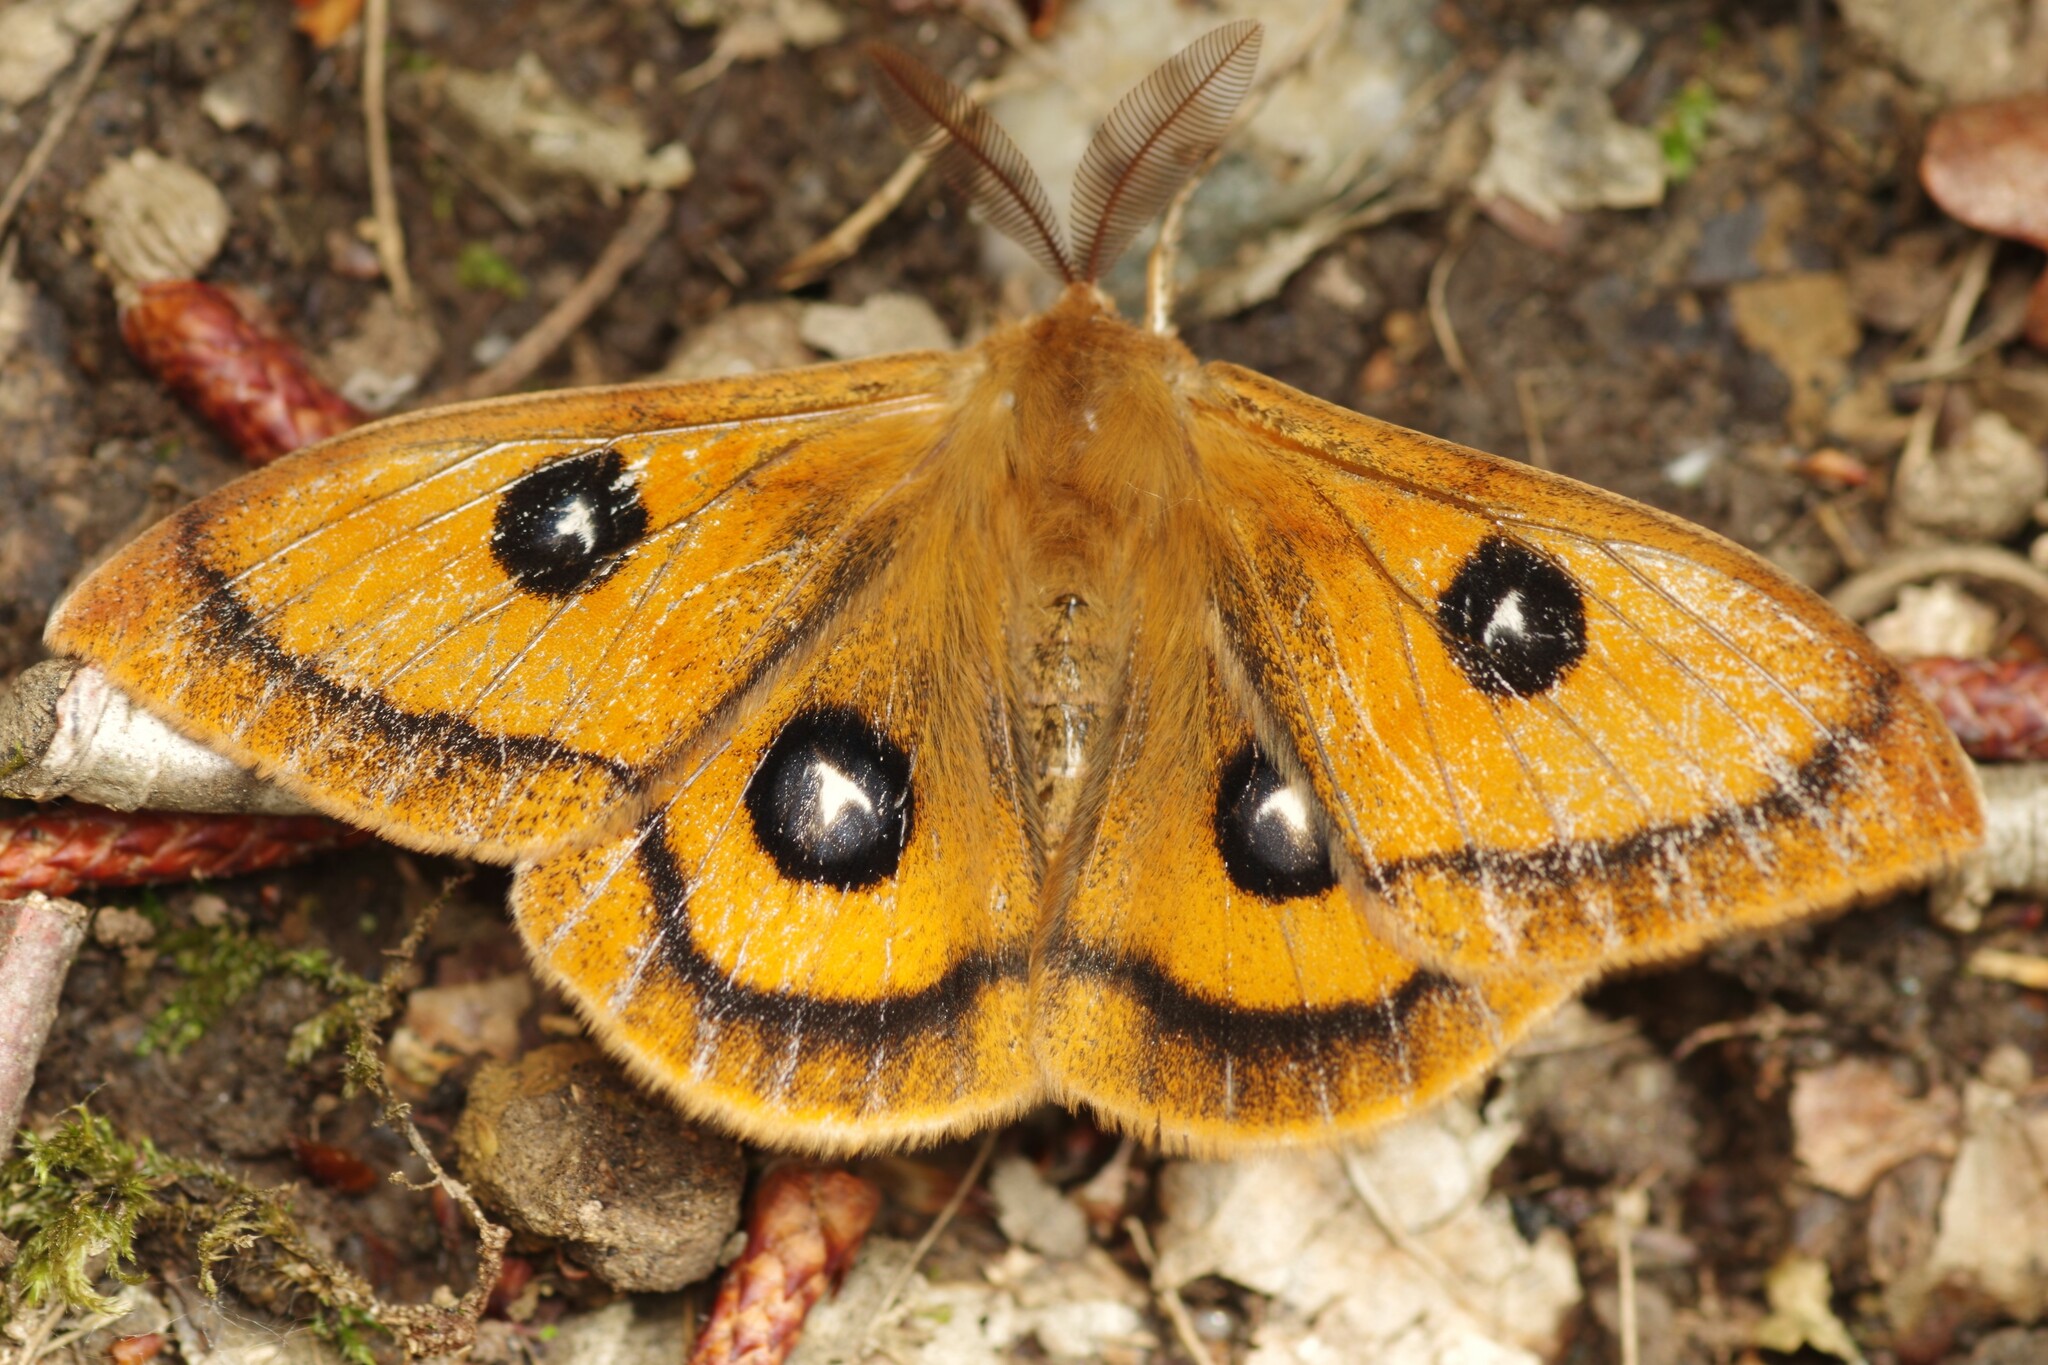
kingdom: Animalia
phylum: Arthropoda
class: Insecta
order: Lepidoptera
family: Saturniidae
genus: Aglia
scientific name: Aglia tau
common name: Tau emperor
